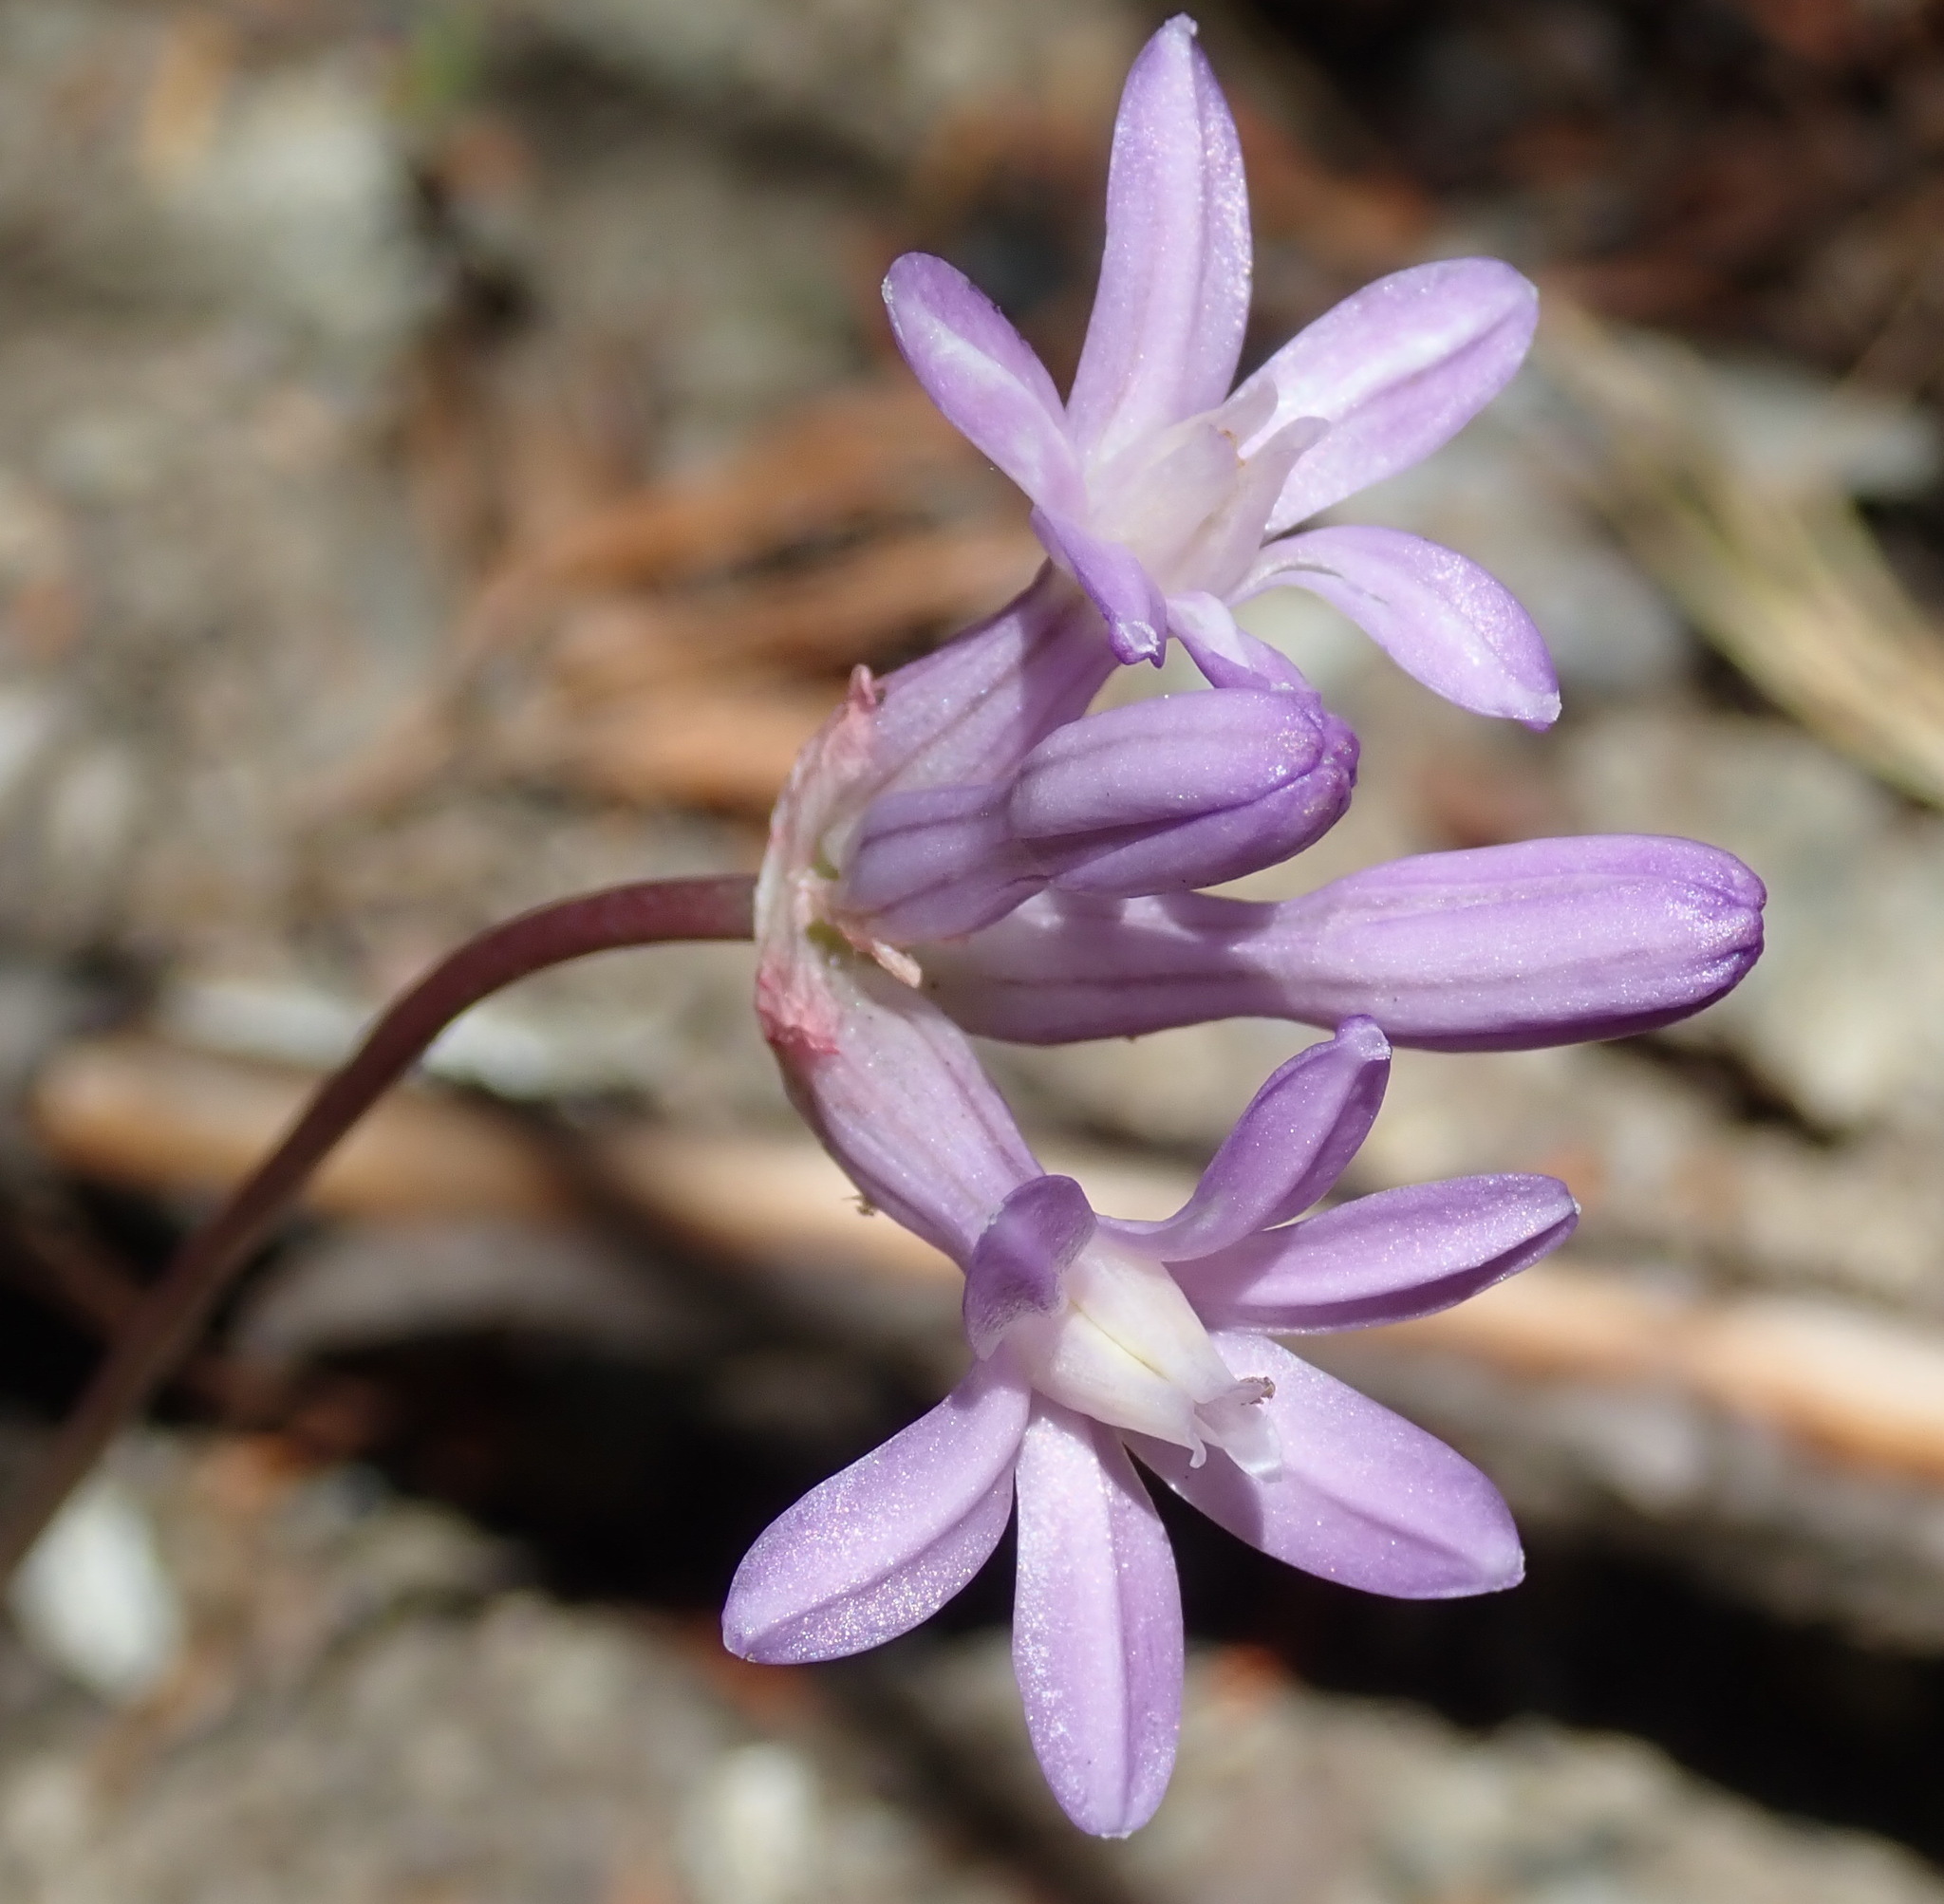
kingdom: Plantae
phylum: Tracheophyta
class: Liliopsida
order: Asparagales
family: Asparagaceae
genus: Dichelostemma
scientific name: Dichelostemma multiflorum
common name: Round-tooth ookow
